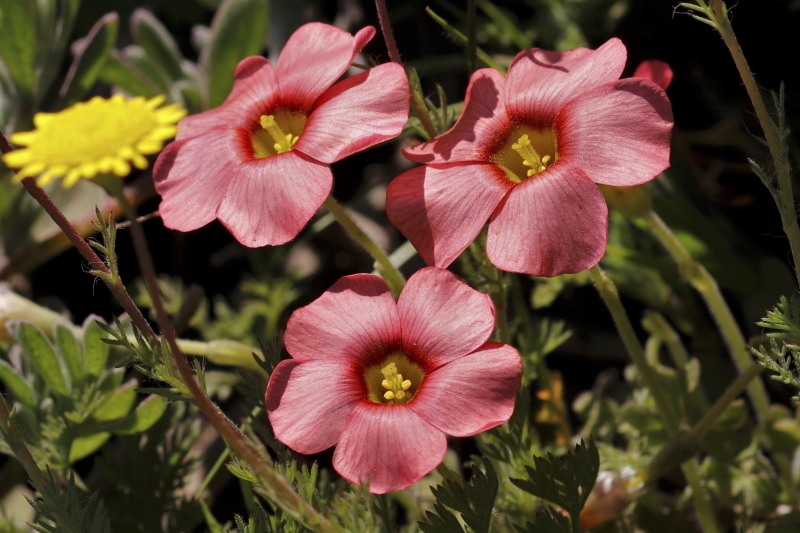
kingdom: Plantae
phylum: Tracheophyta
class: Magnoliopsida
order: Oxalidales
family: Oxalidaceae
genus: Oxalis
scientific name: Oxalis obtusa
